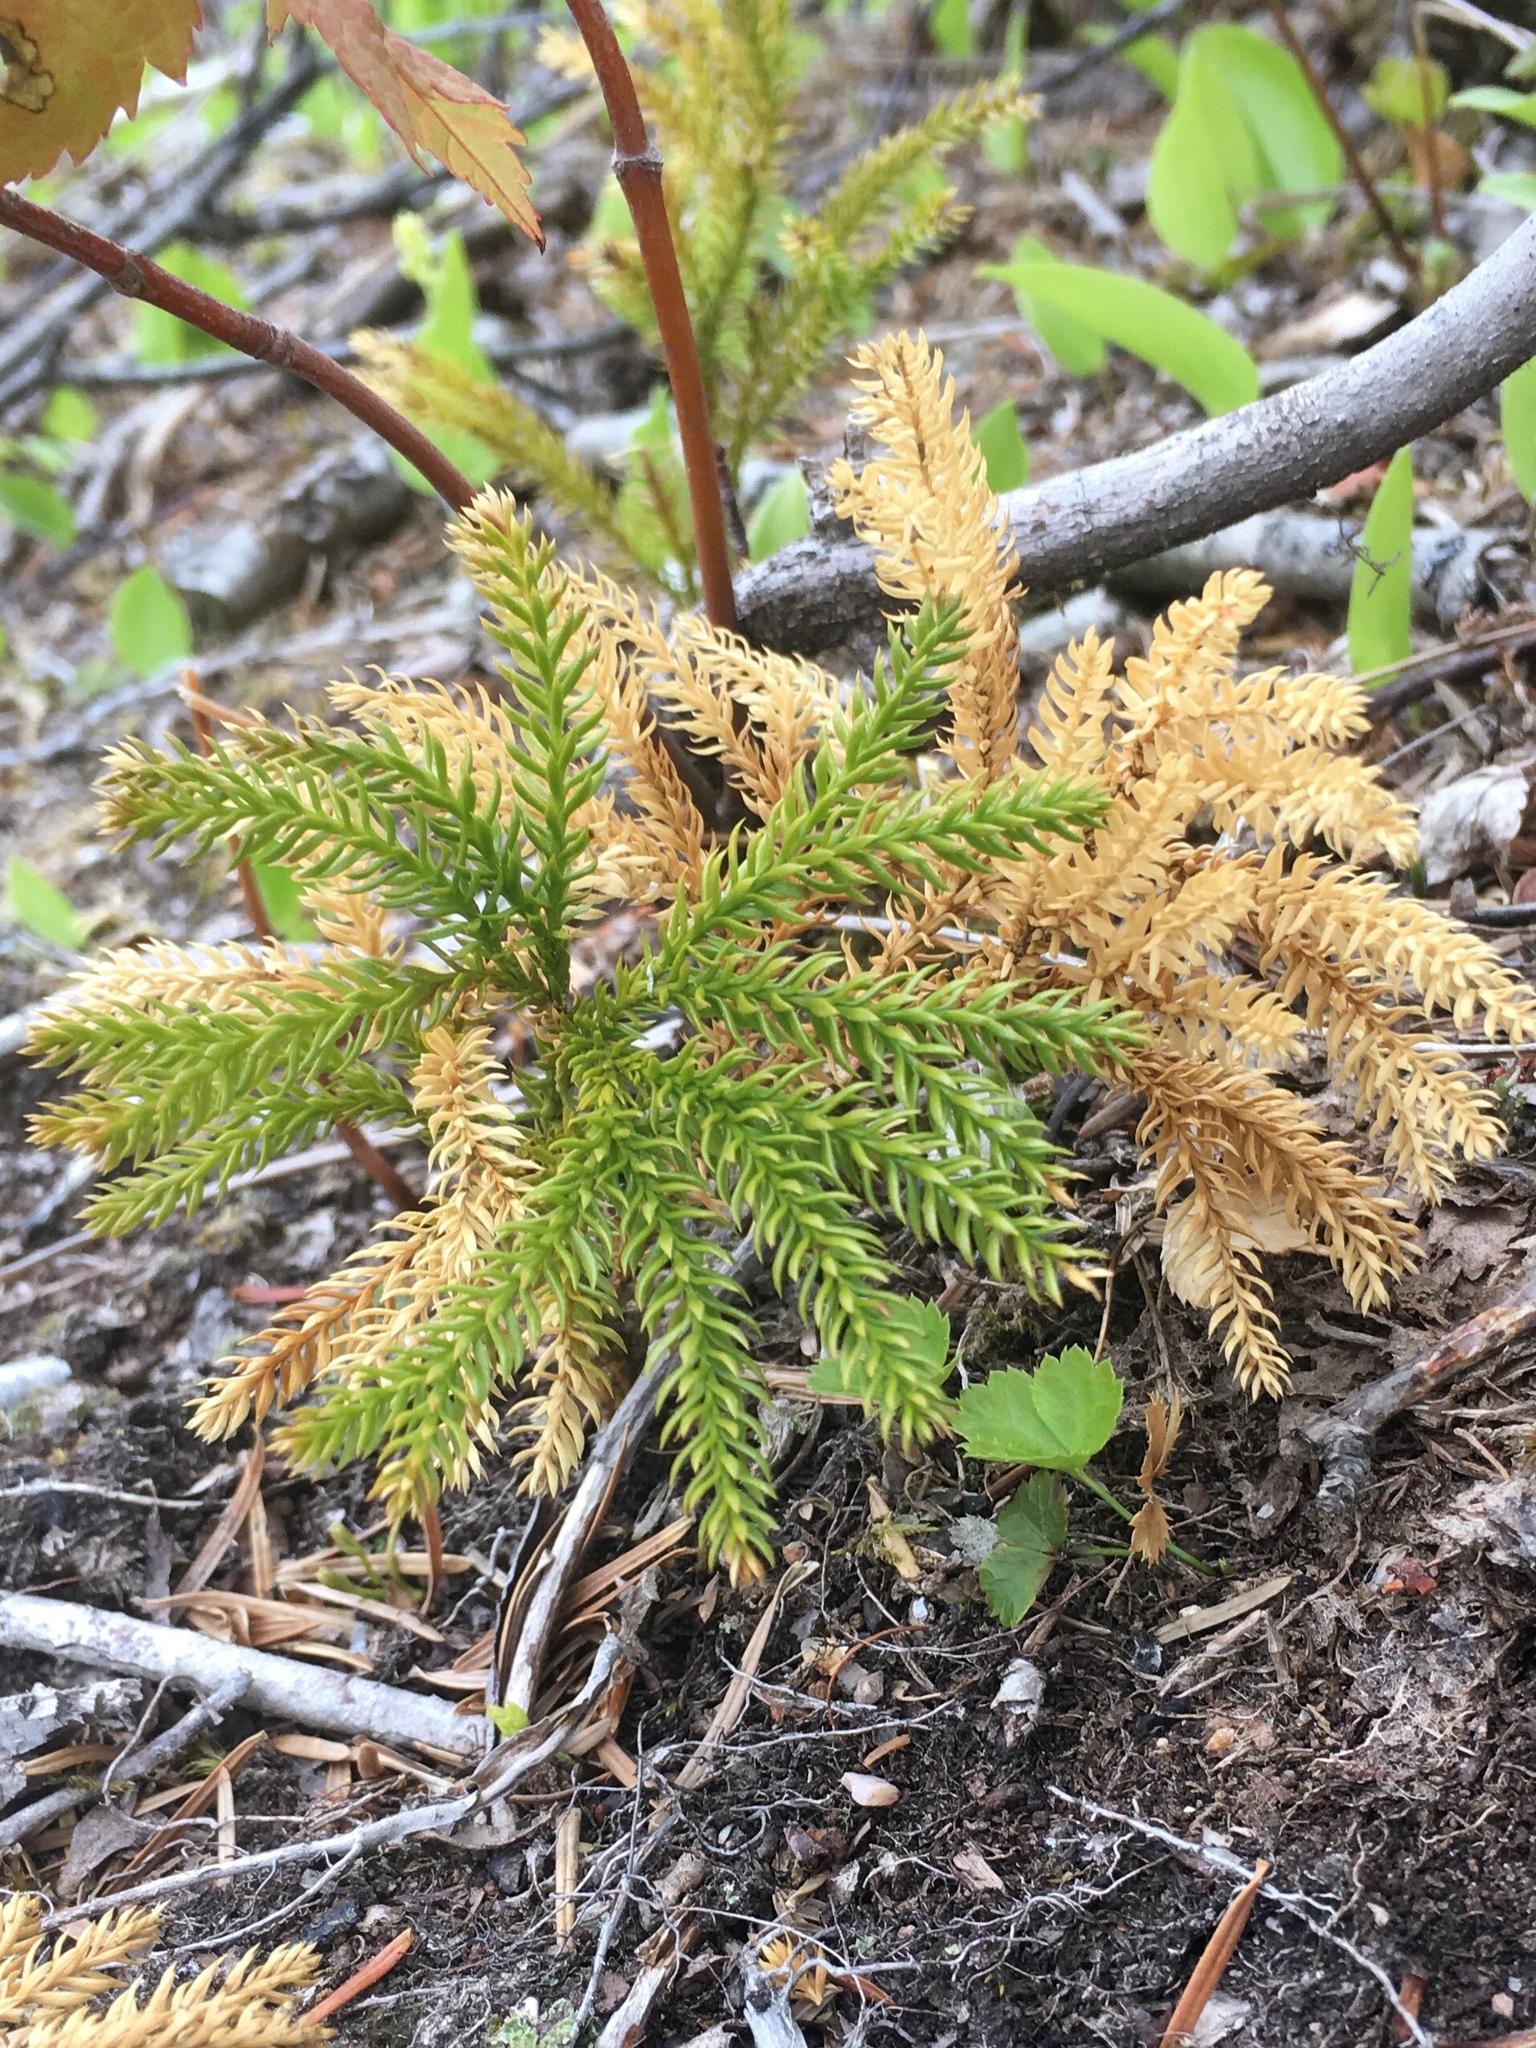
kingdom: Plantae
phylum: Tracheophyta
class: Lycopodiopsida
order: Lycopodiales
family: Lycopodiaceae
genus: Dendrolycopodium
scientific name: Dendrolycopodium obscurum
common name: Common ground-pine
